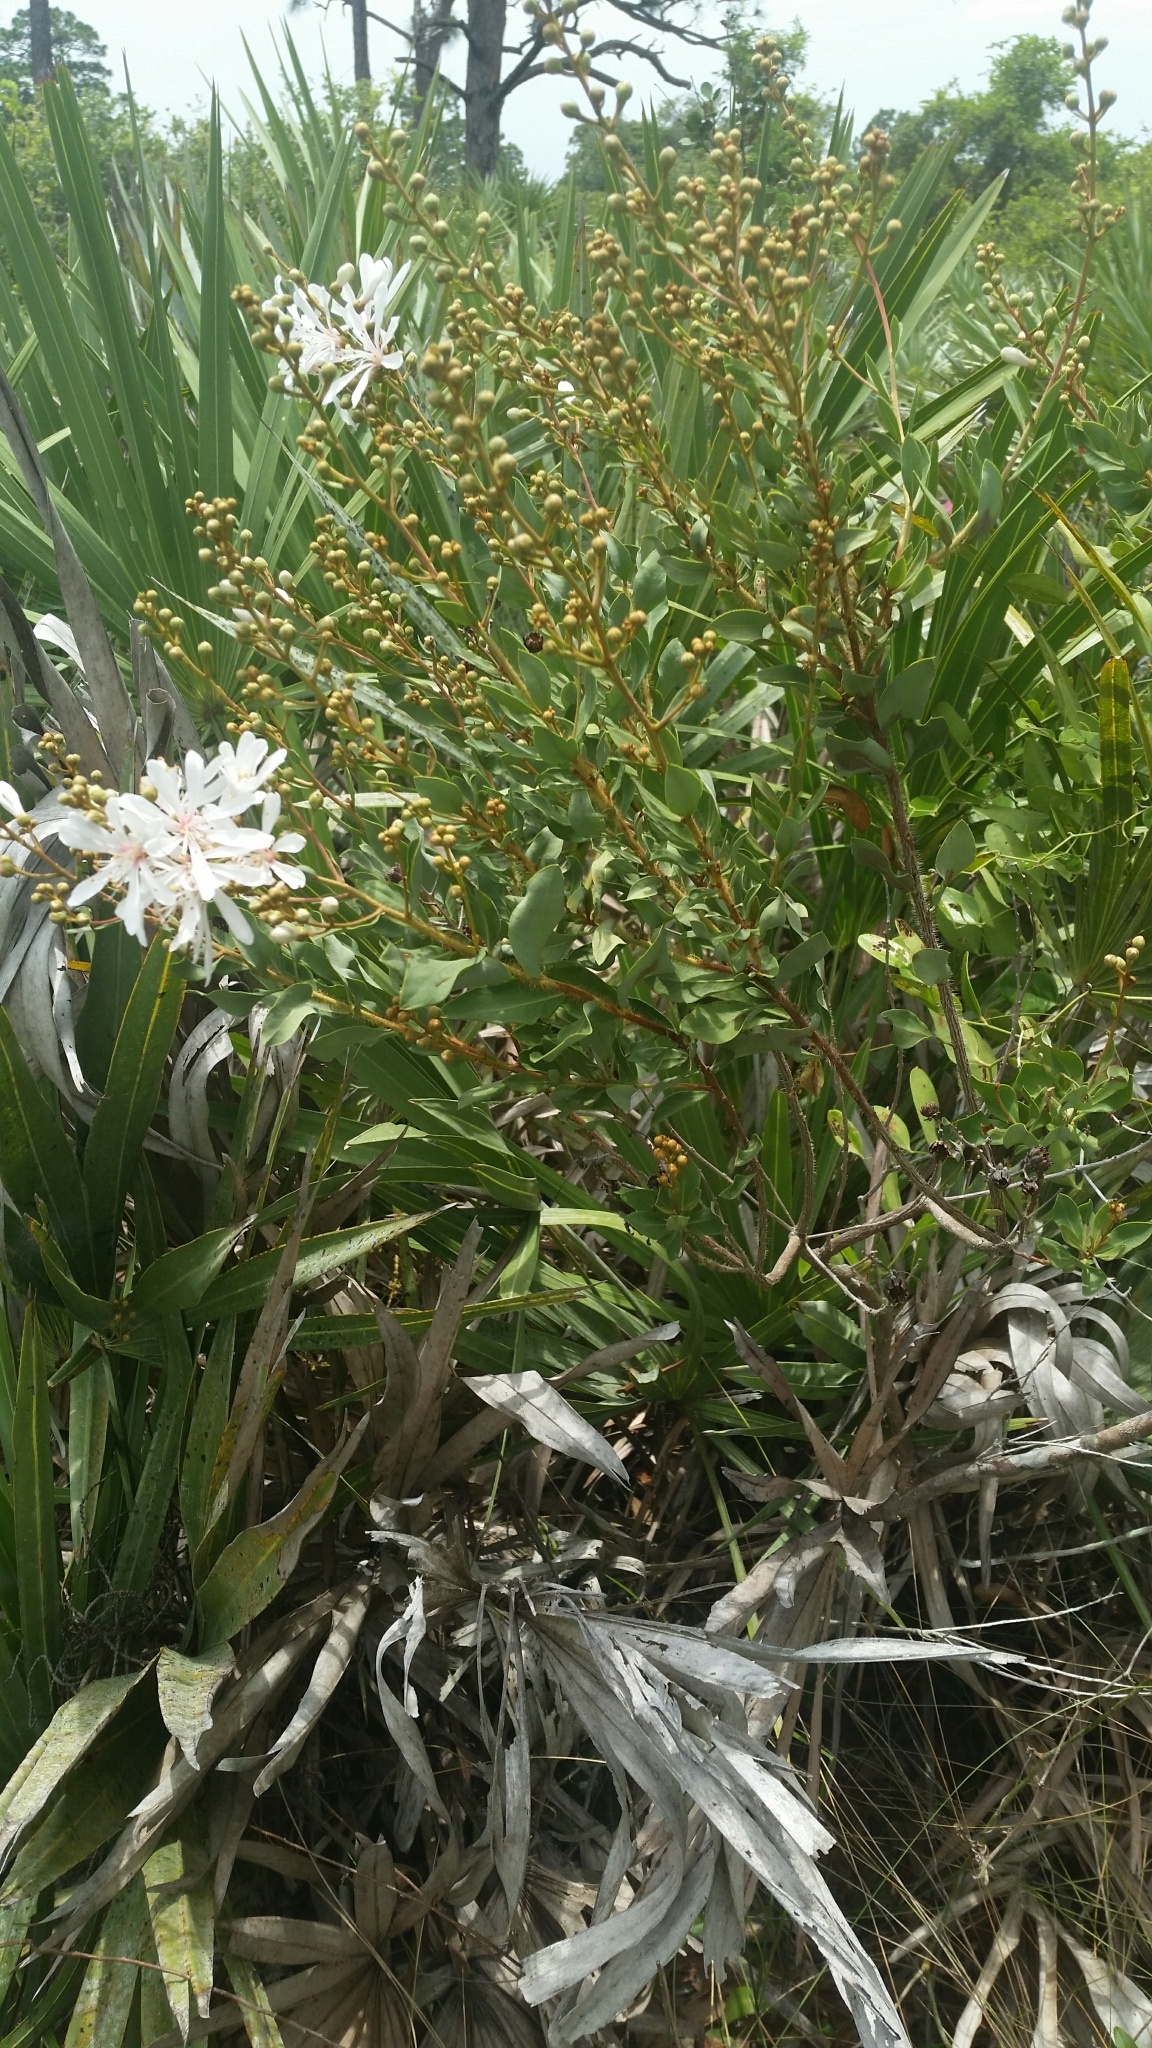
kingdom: Plantae
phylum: Tracheophyta
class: Magnoliopsida
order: Ericales
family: Ericaceae
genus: Bejaria
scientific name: Bejaria racemosa
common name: Tarflower
